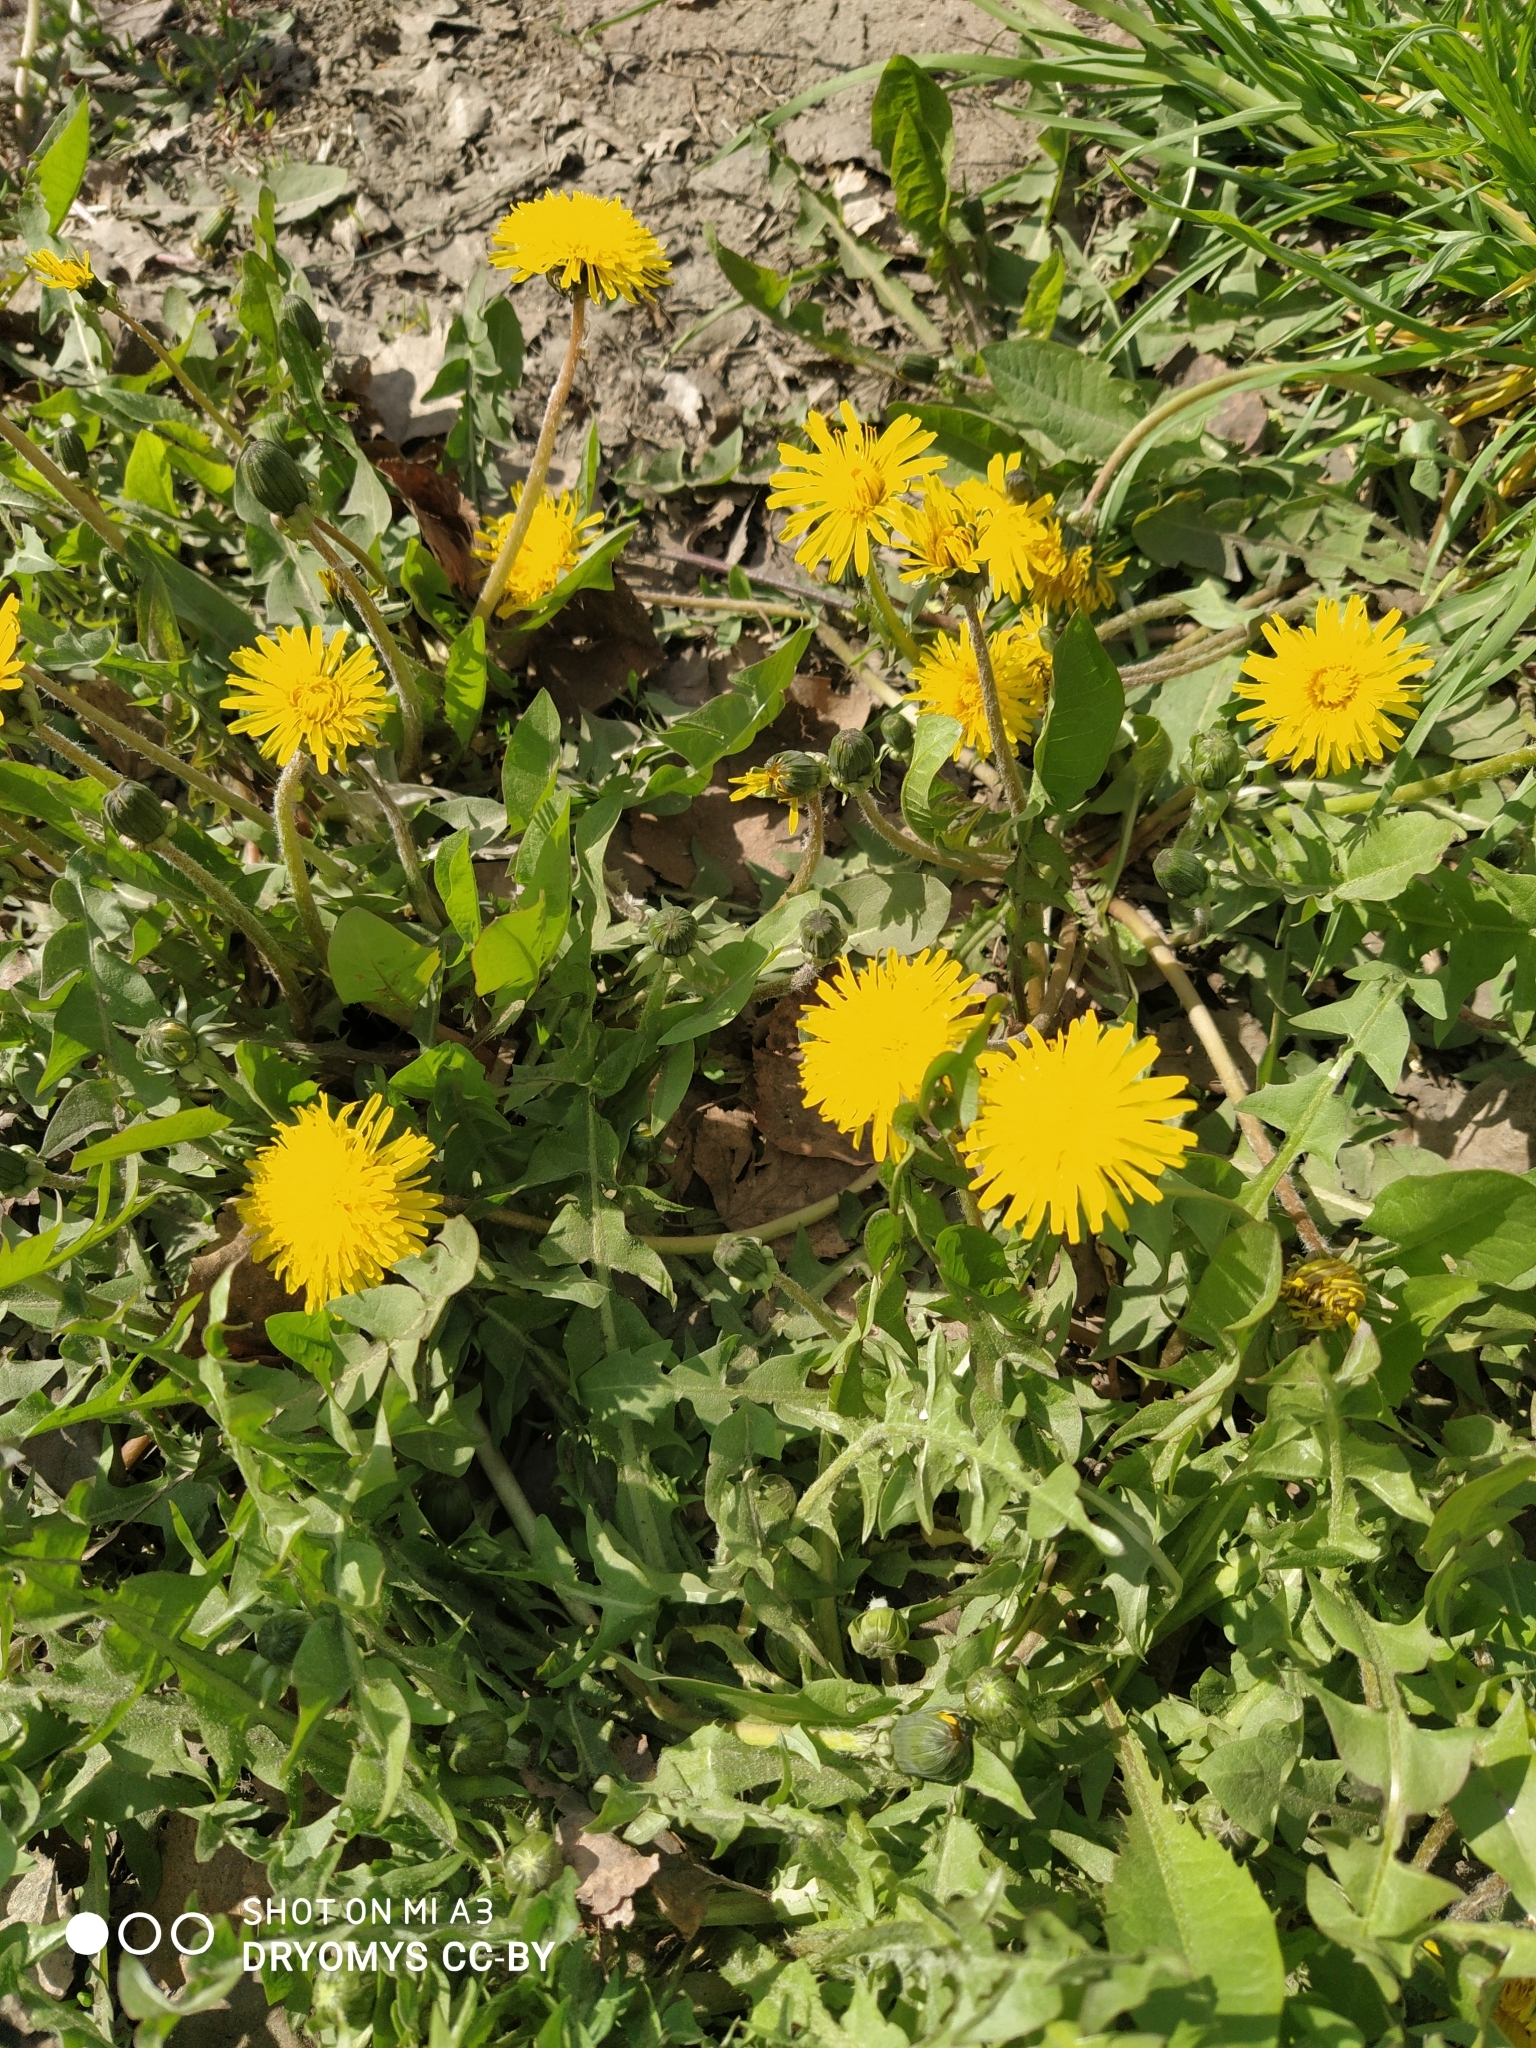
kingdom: Plantae
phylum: Tracheophyta
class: Magnoliopsida
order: Asterales
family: Asteraceae
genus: Taraxacum
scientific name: Taraxacum officinale
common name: Common dandelion
